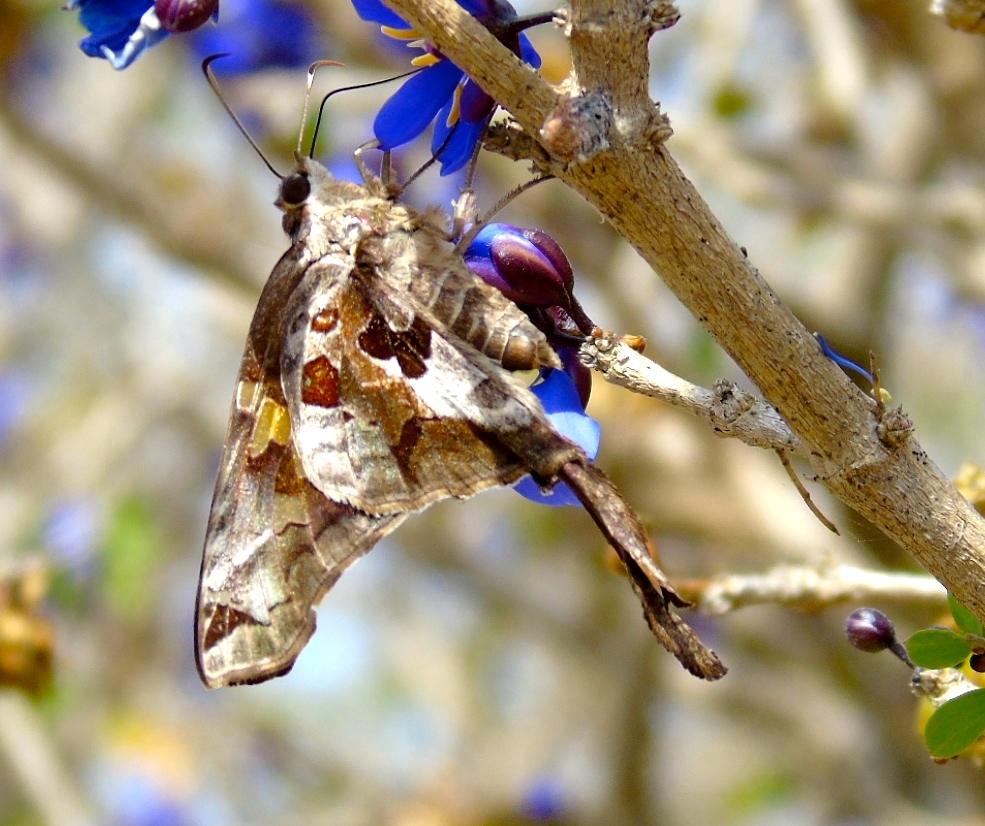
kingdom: Animalia
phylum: Arthropoda
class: Insecta
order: Lepidoptera
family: Hesperiidae
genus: Chioides
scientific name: Chioides zilpa
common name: Zilpa longtail
